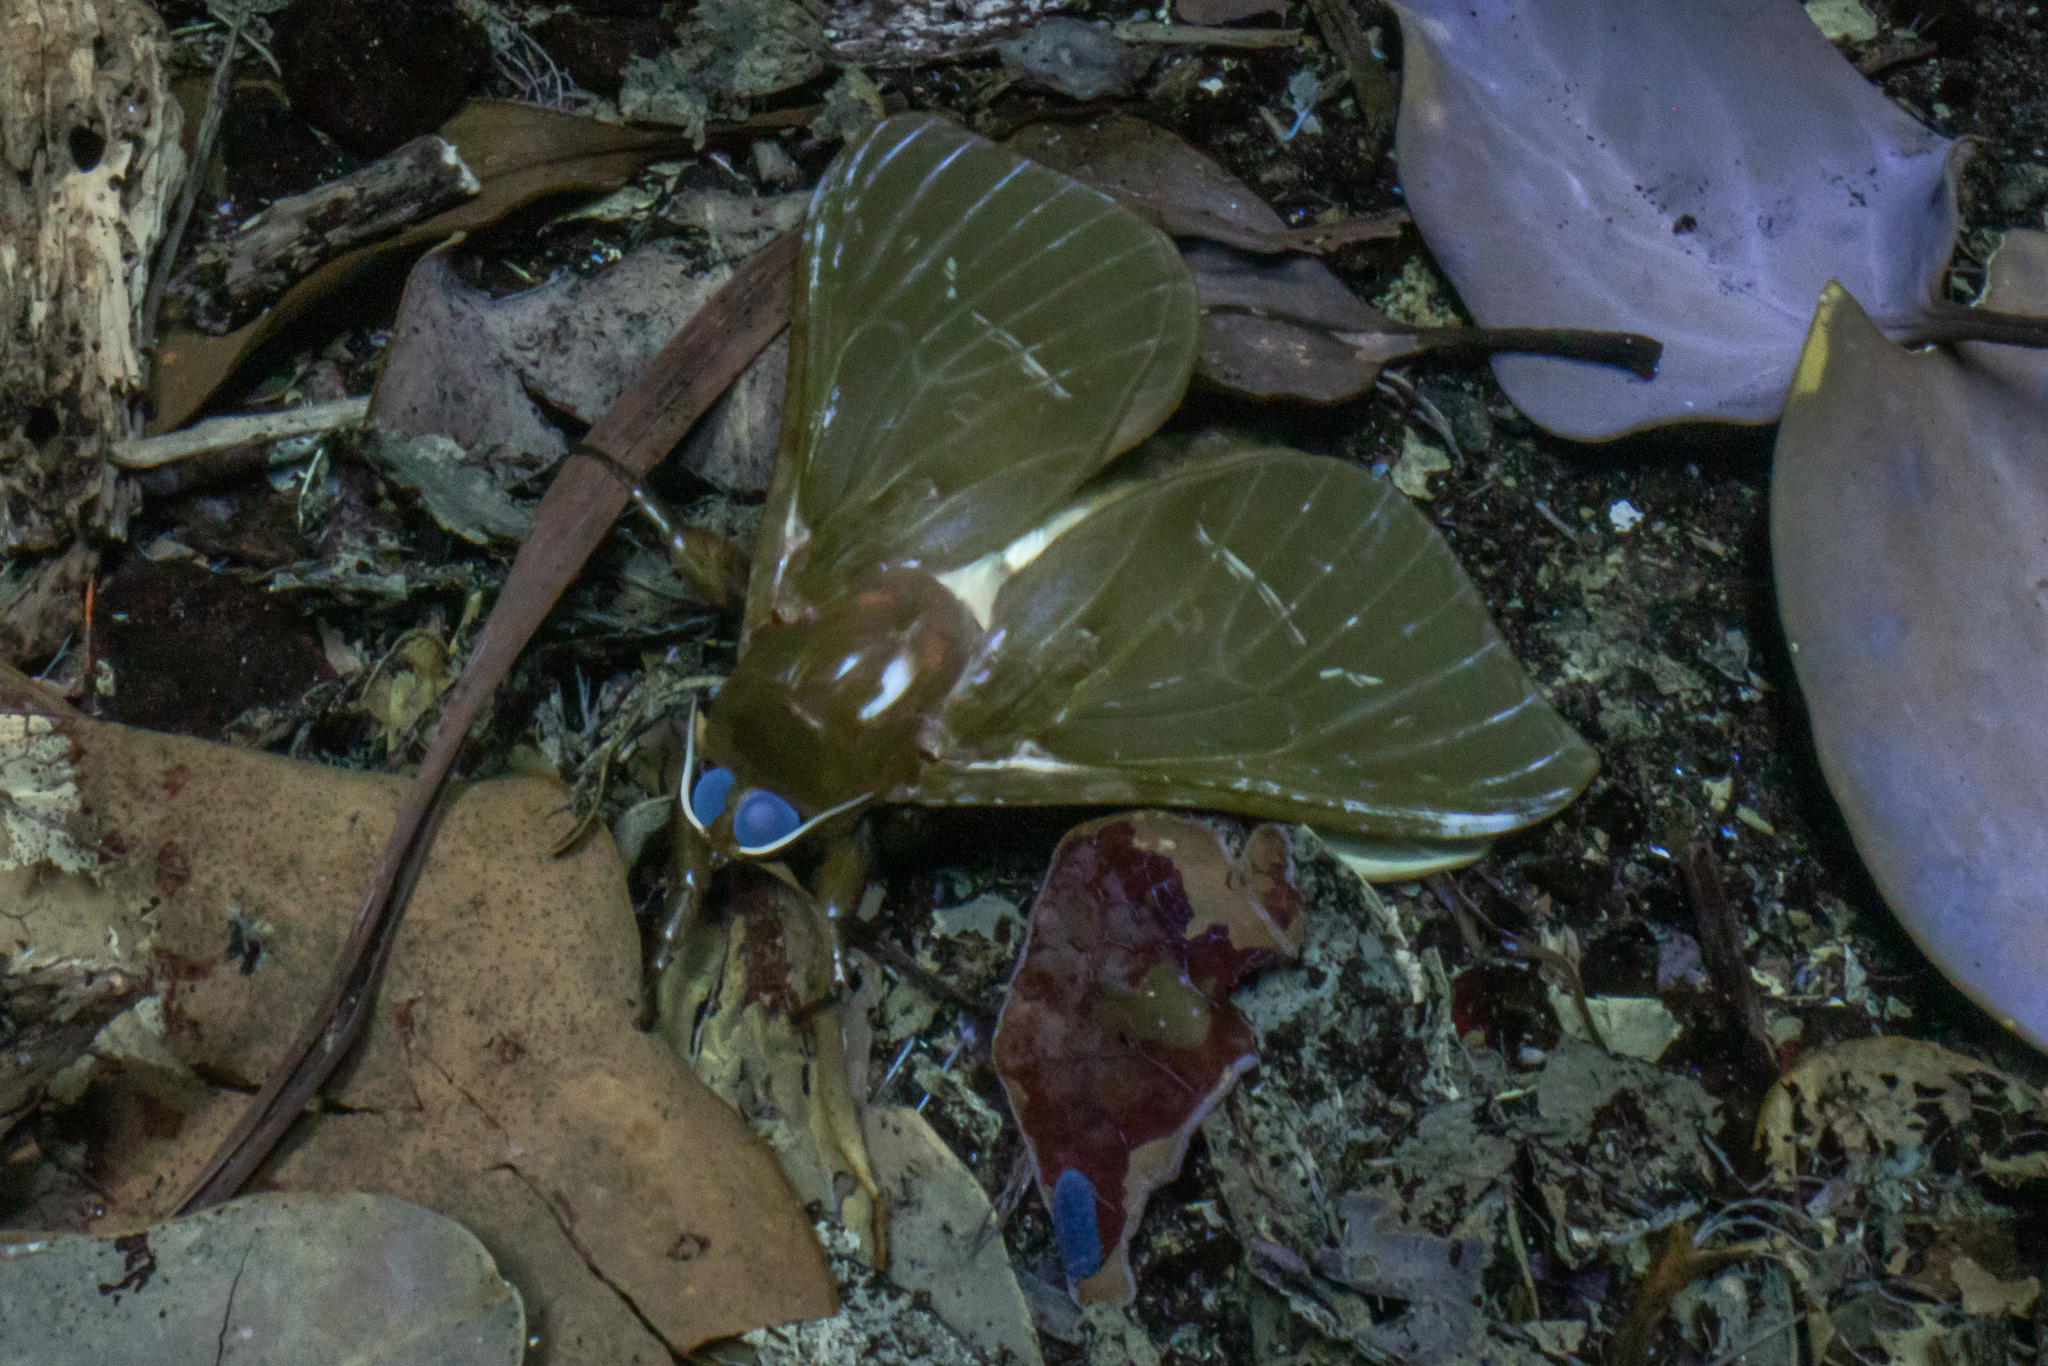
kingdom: Animalia
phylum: Arthropoda
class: Insecta
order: Lepidoptera
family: Hepialidae
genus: Aenetus
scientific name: Aenetus virescens
